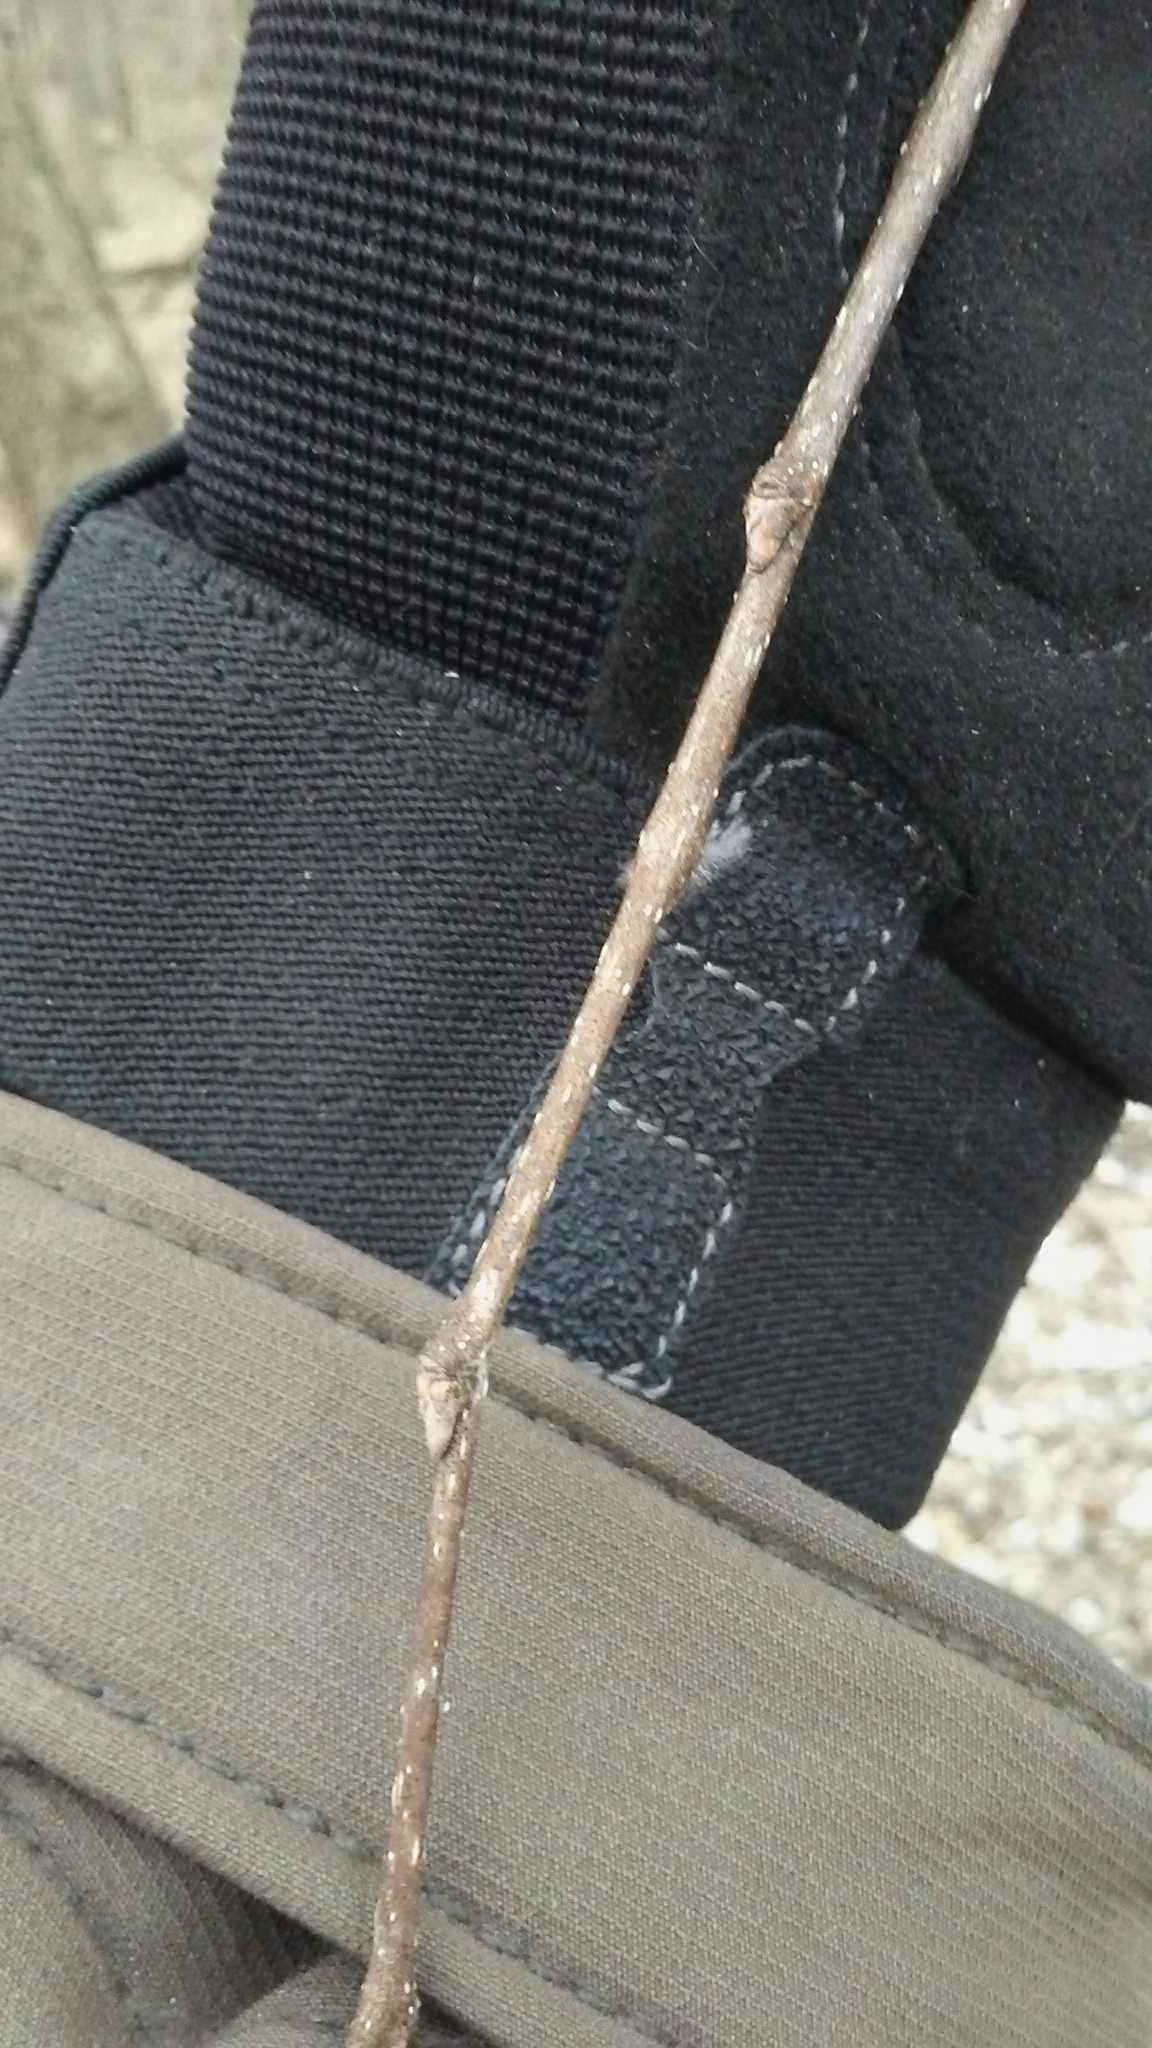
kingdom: Plantae
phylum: Tracheophyta
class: Magnoliopsida
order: Rosales
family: Cannabaceae
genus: Celtis
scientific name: Celtis occidentalis
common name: Common hackberry
